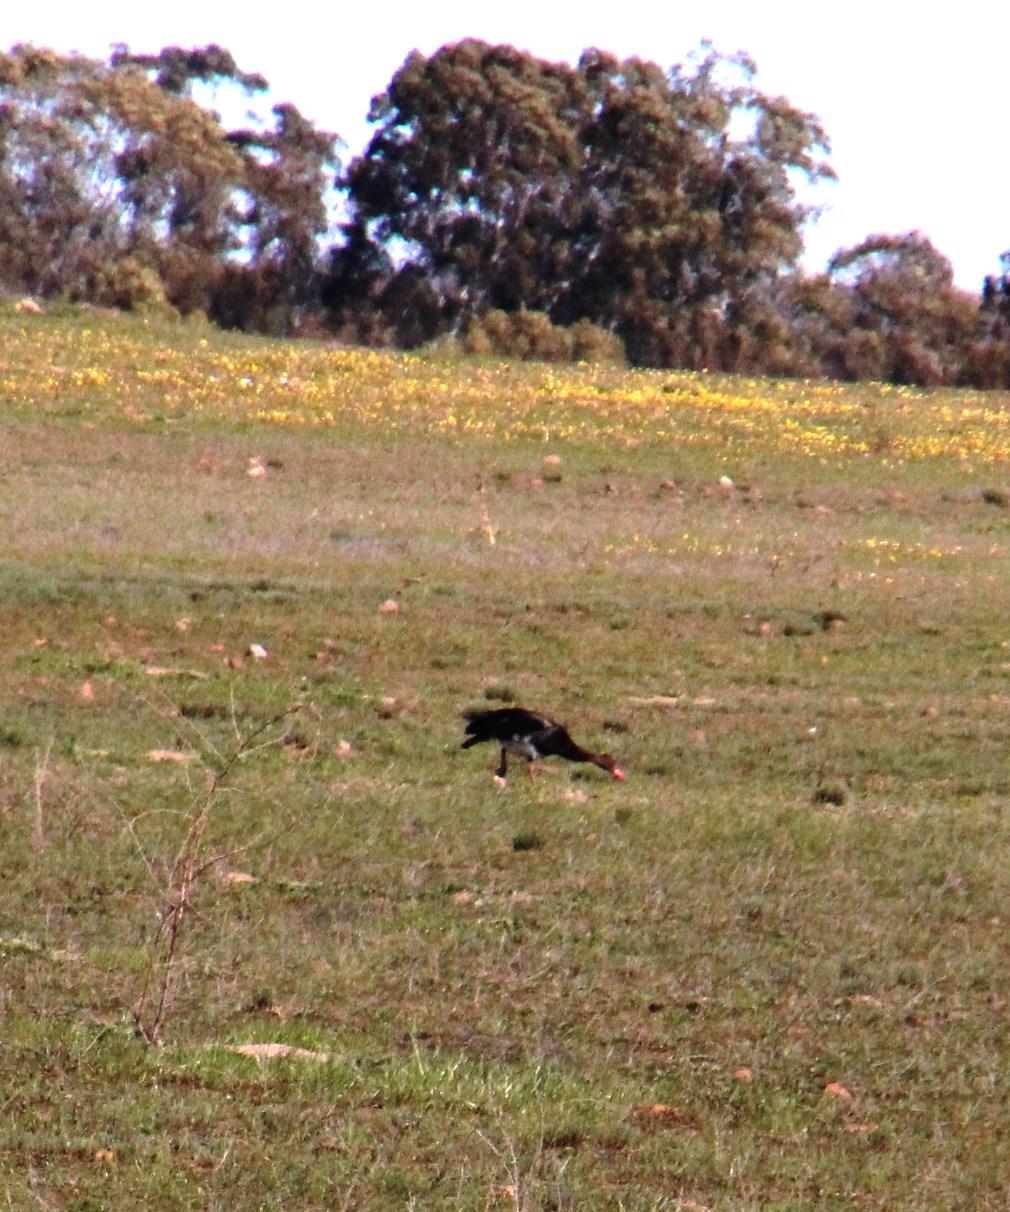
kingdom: Animalia
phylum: Chordata
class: Aves
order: Anseriformes
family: Anatidae
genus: Plectropterus
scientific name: Plectropterus gambensis
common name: Spur-winged goose
